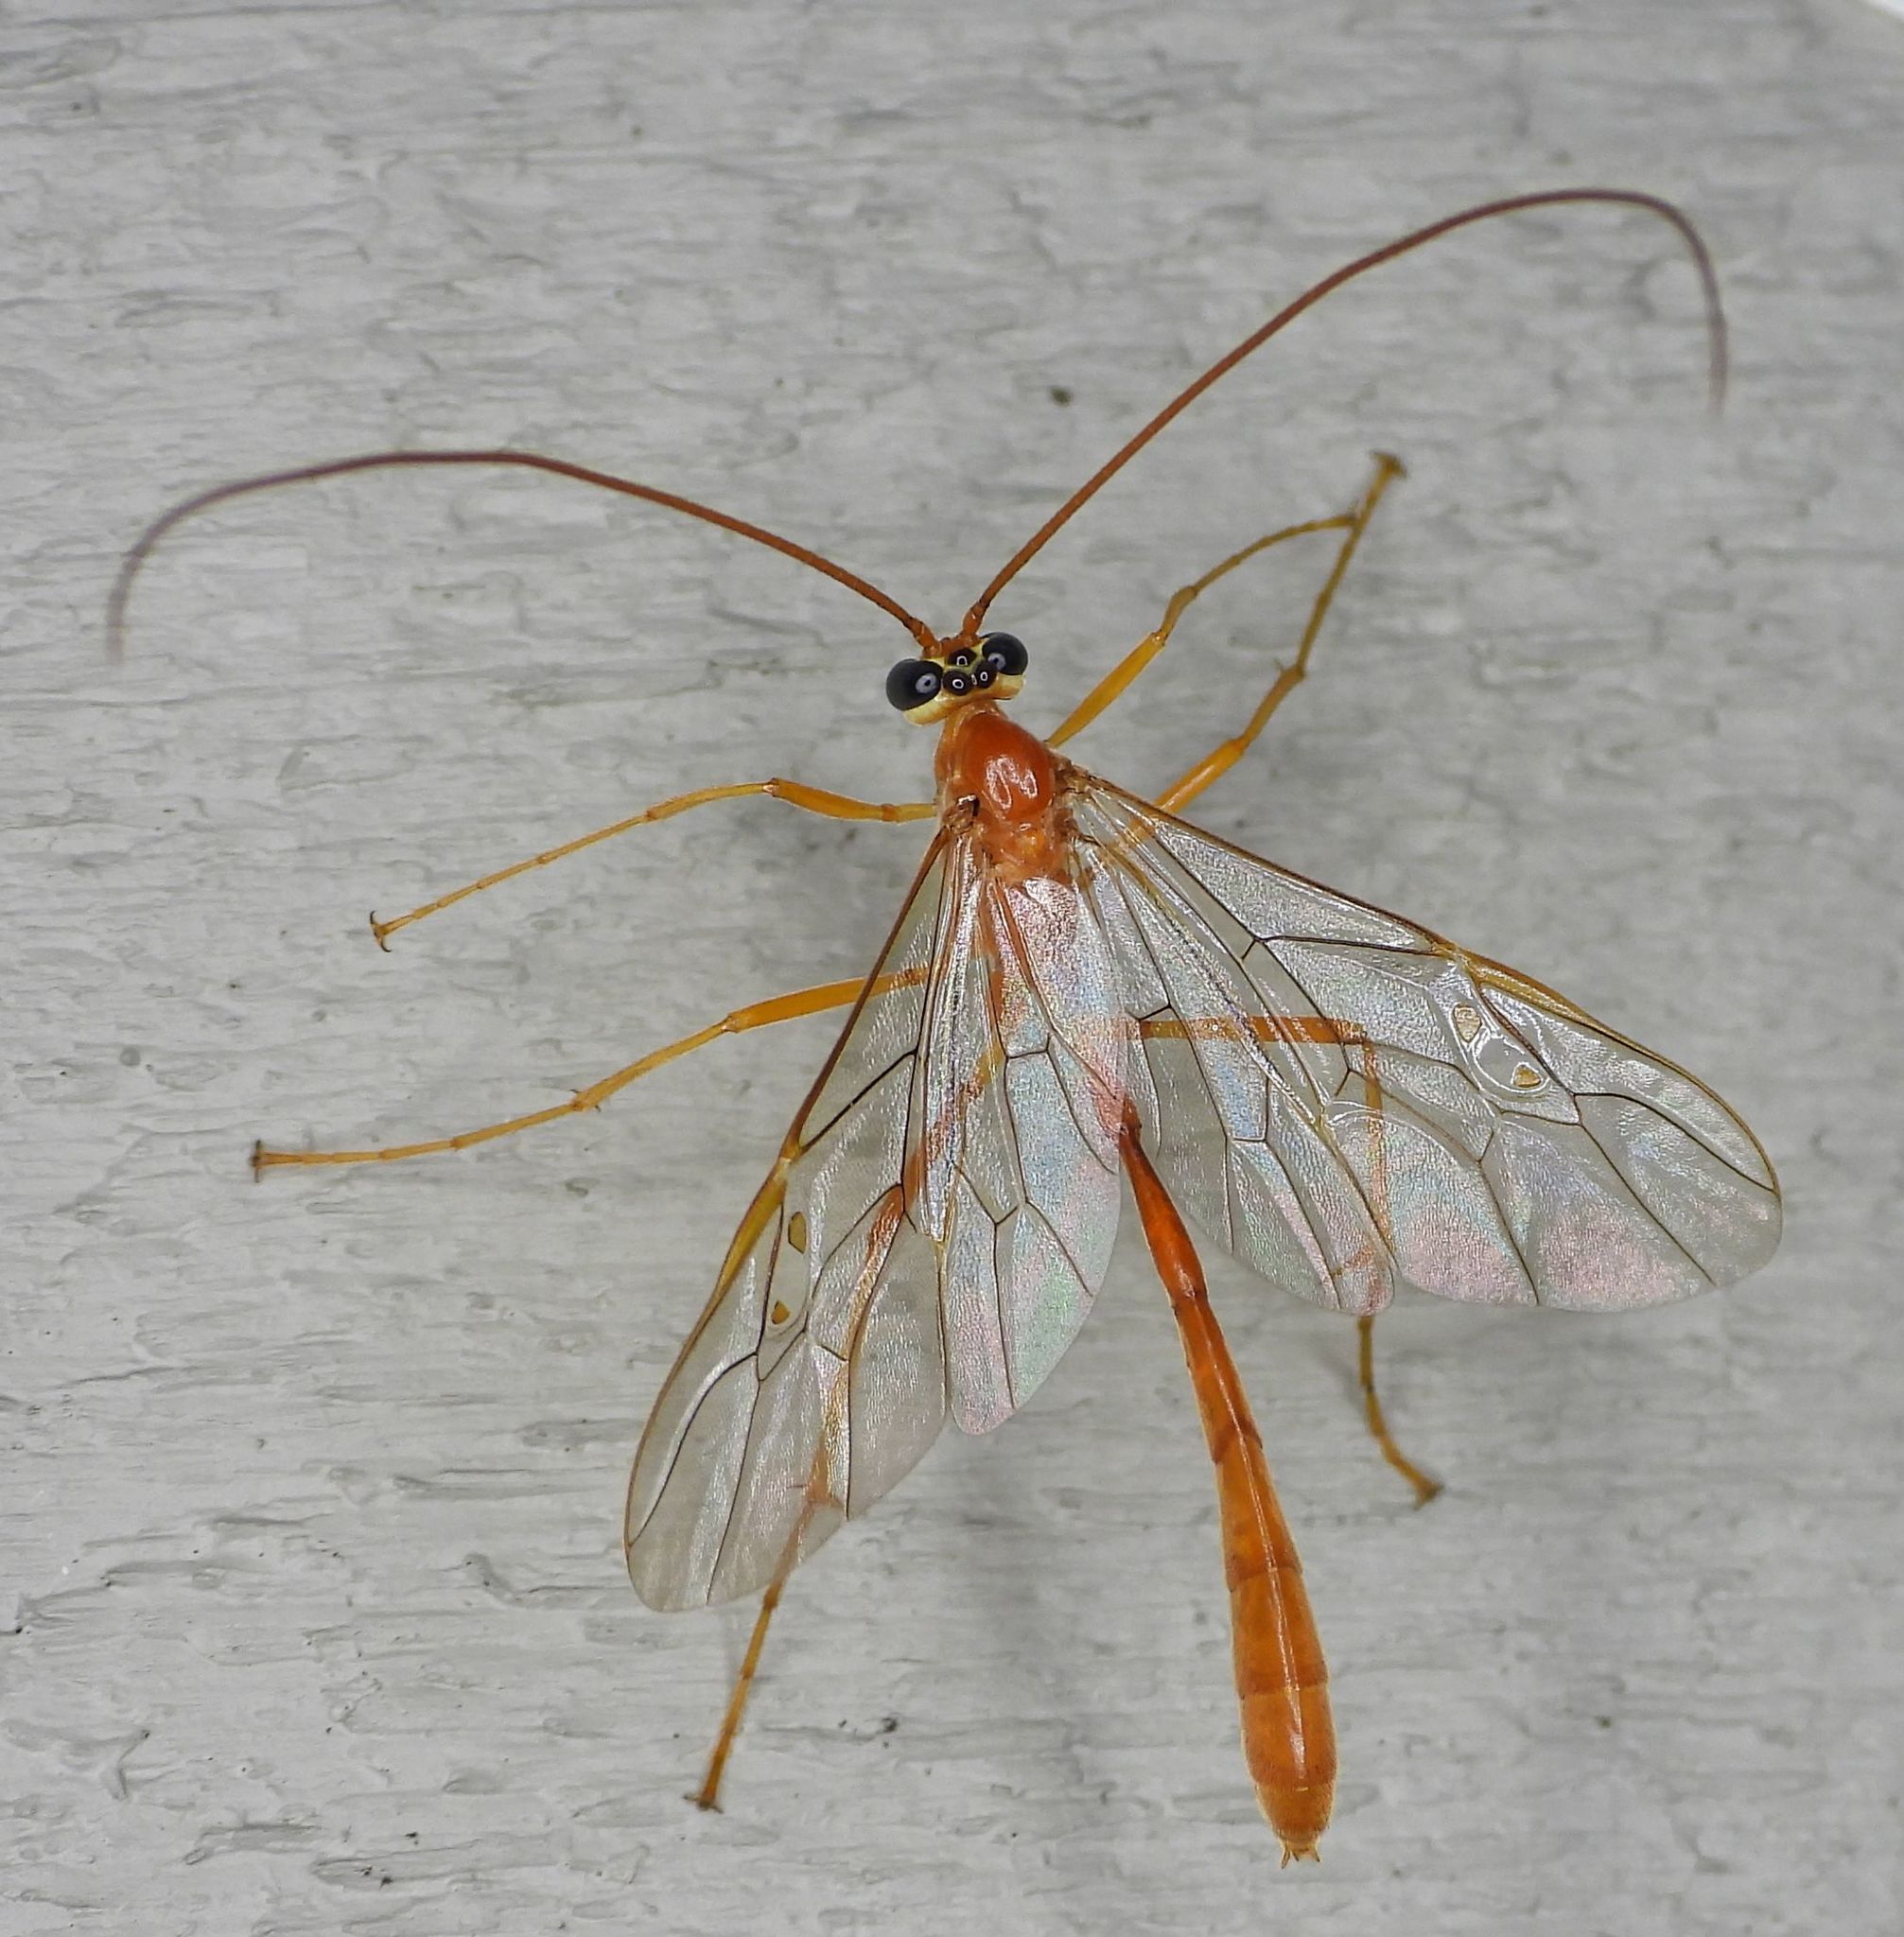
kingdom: Animalia
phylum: Arthropoda
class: Insecta
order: Hymenoptera
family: Ichneumonidae
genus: Enicospilus
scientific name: Enicospilus purgatus
